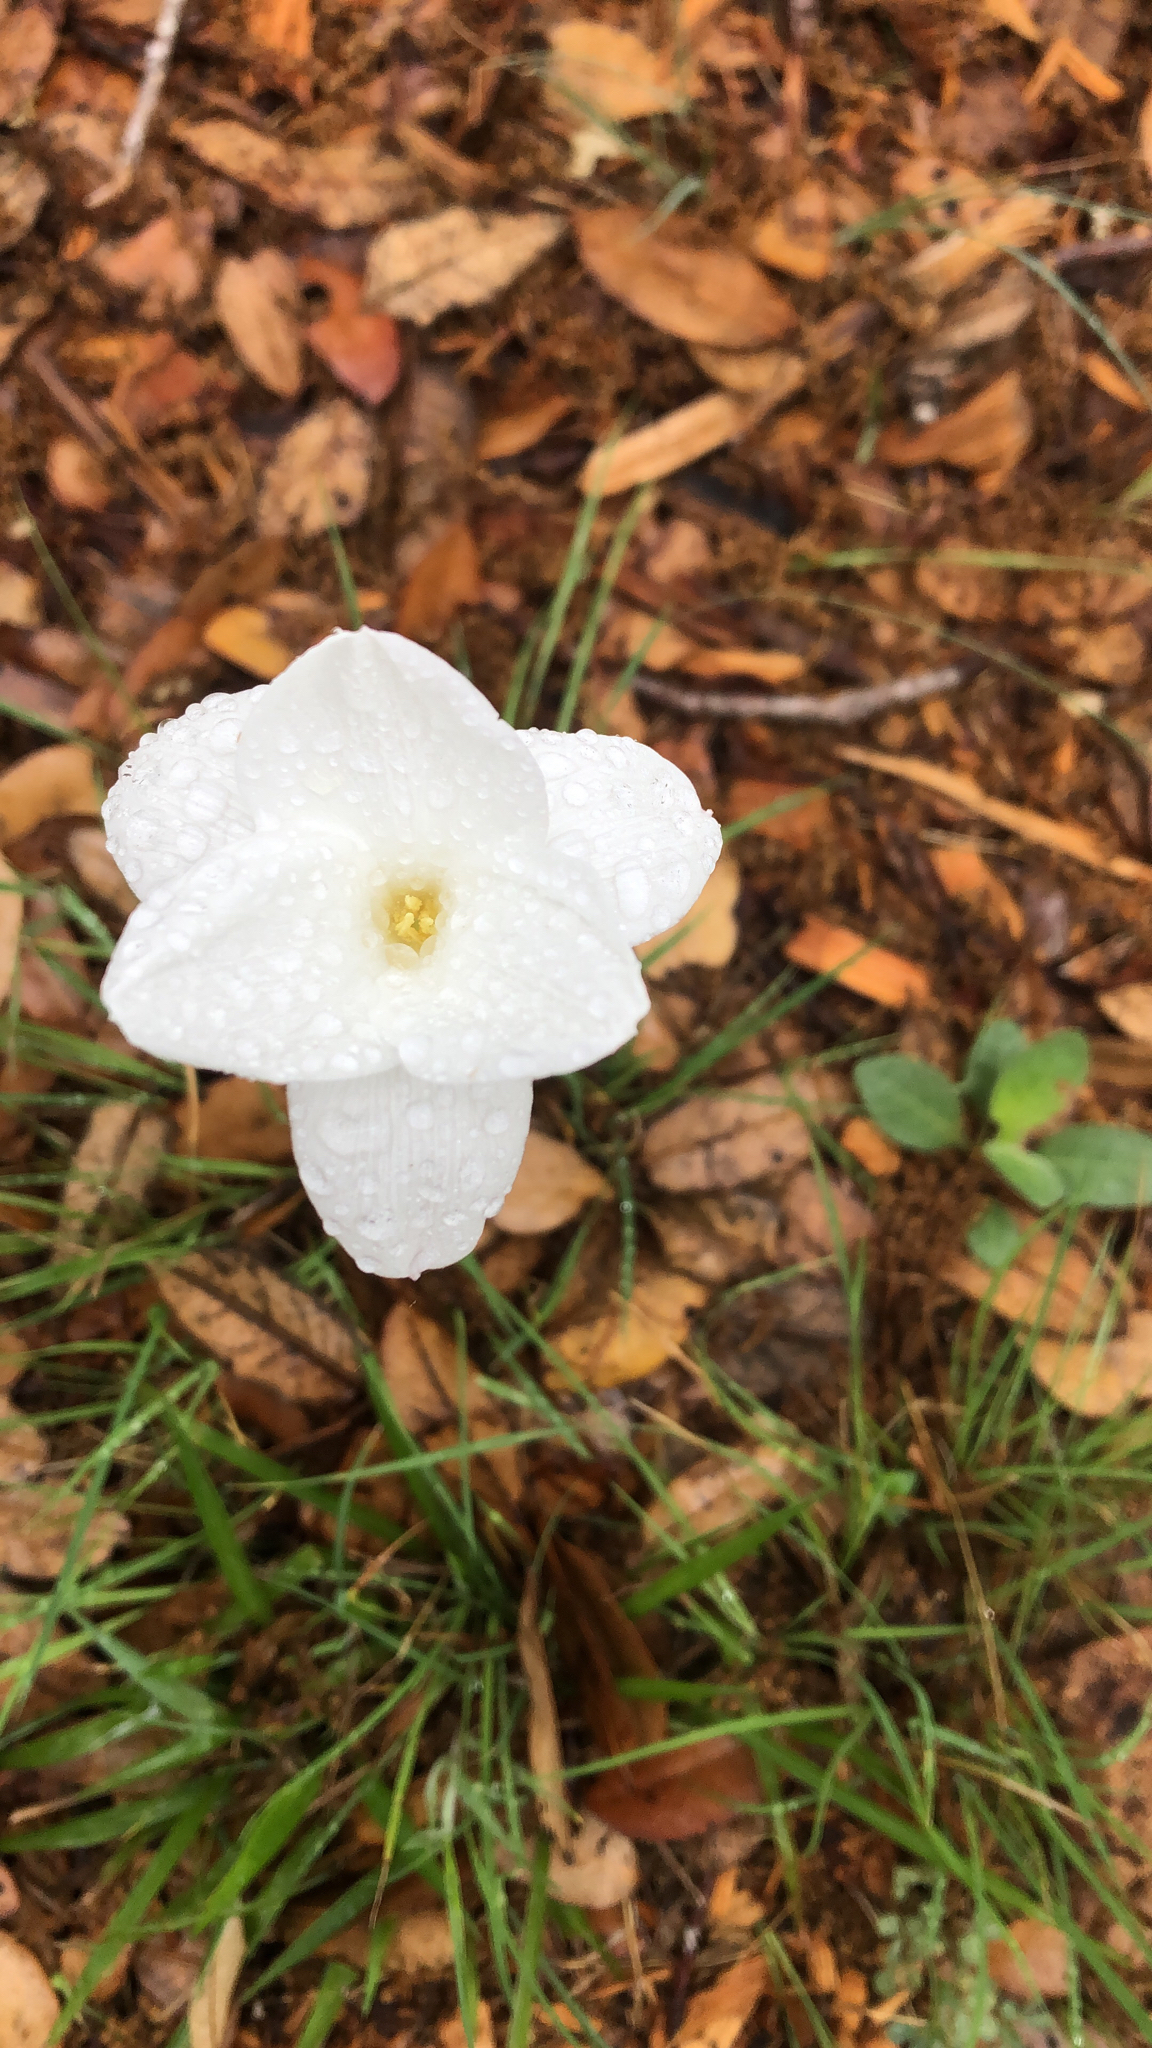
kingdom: Plantae
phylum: Tracheophyta
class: Liliopsida
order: Asparagales
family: Amaryllidaceae
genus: Zephyranthes
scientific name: Zephyranthes drummondii
